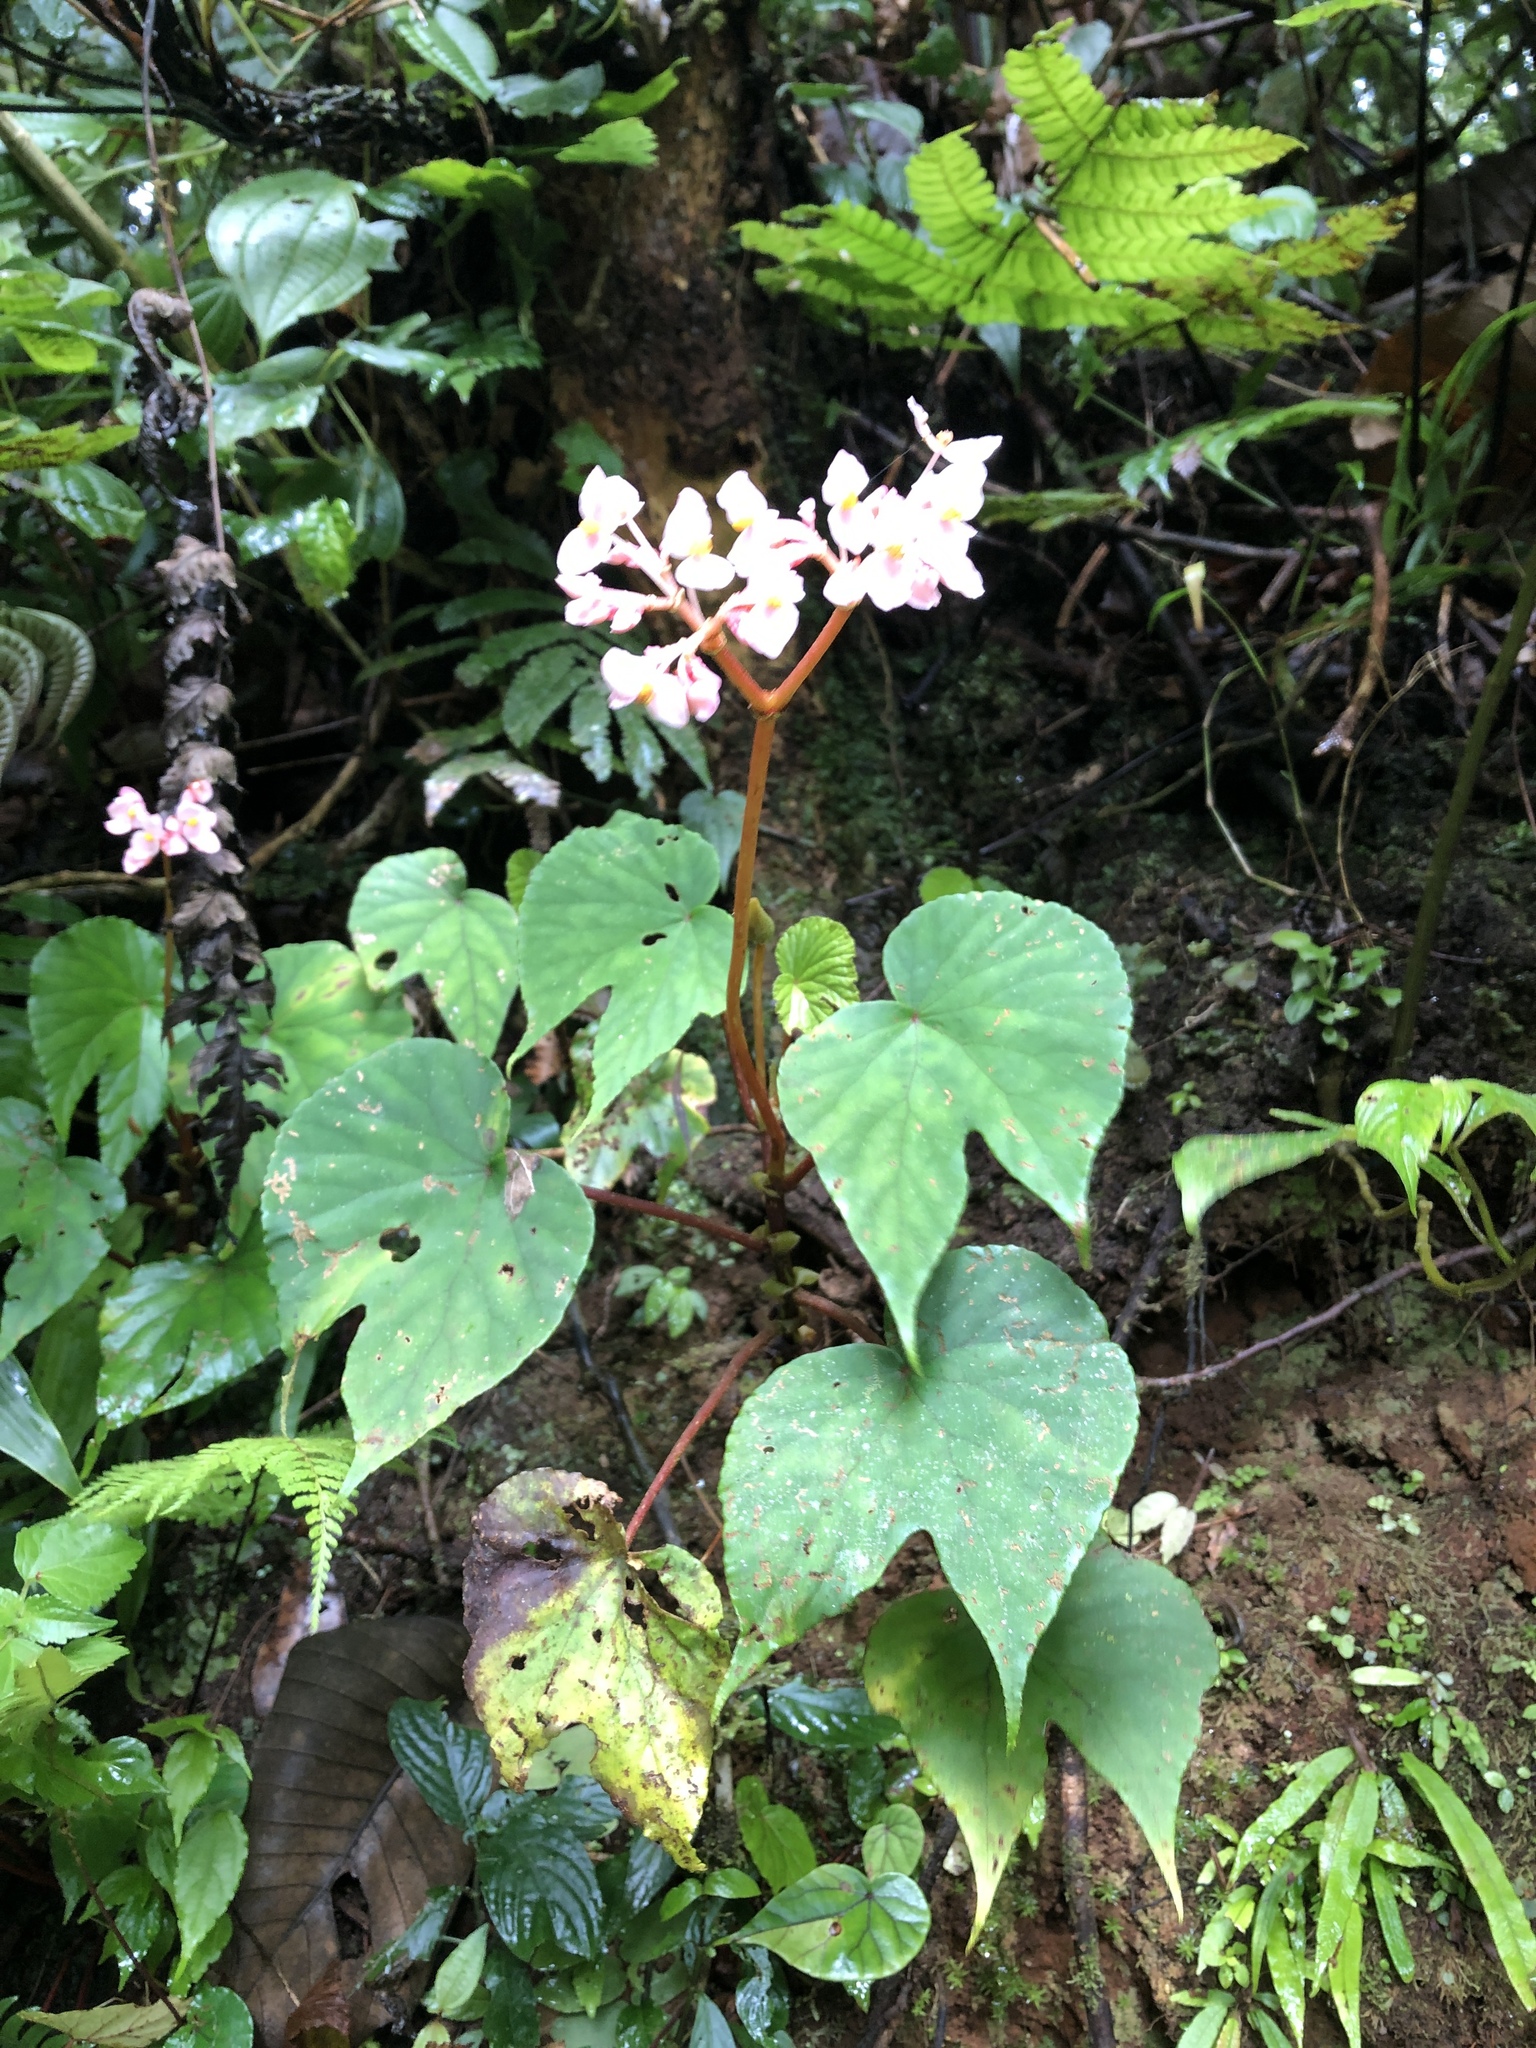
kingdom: Plantae
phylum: Tracheophyta
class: Magnoliopsida
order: Cucurbitales
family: Begoniaceae
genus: Begonia
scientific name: Begonia involucrata
